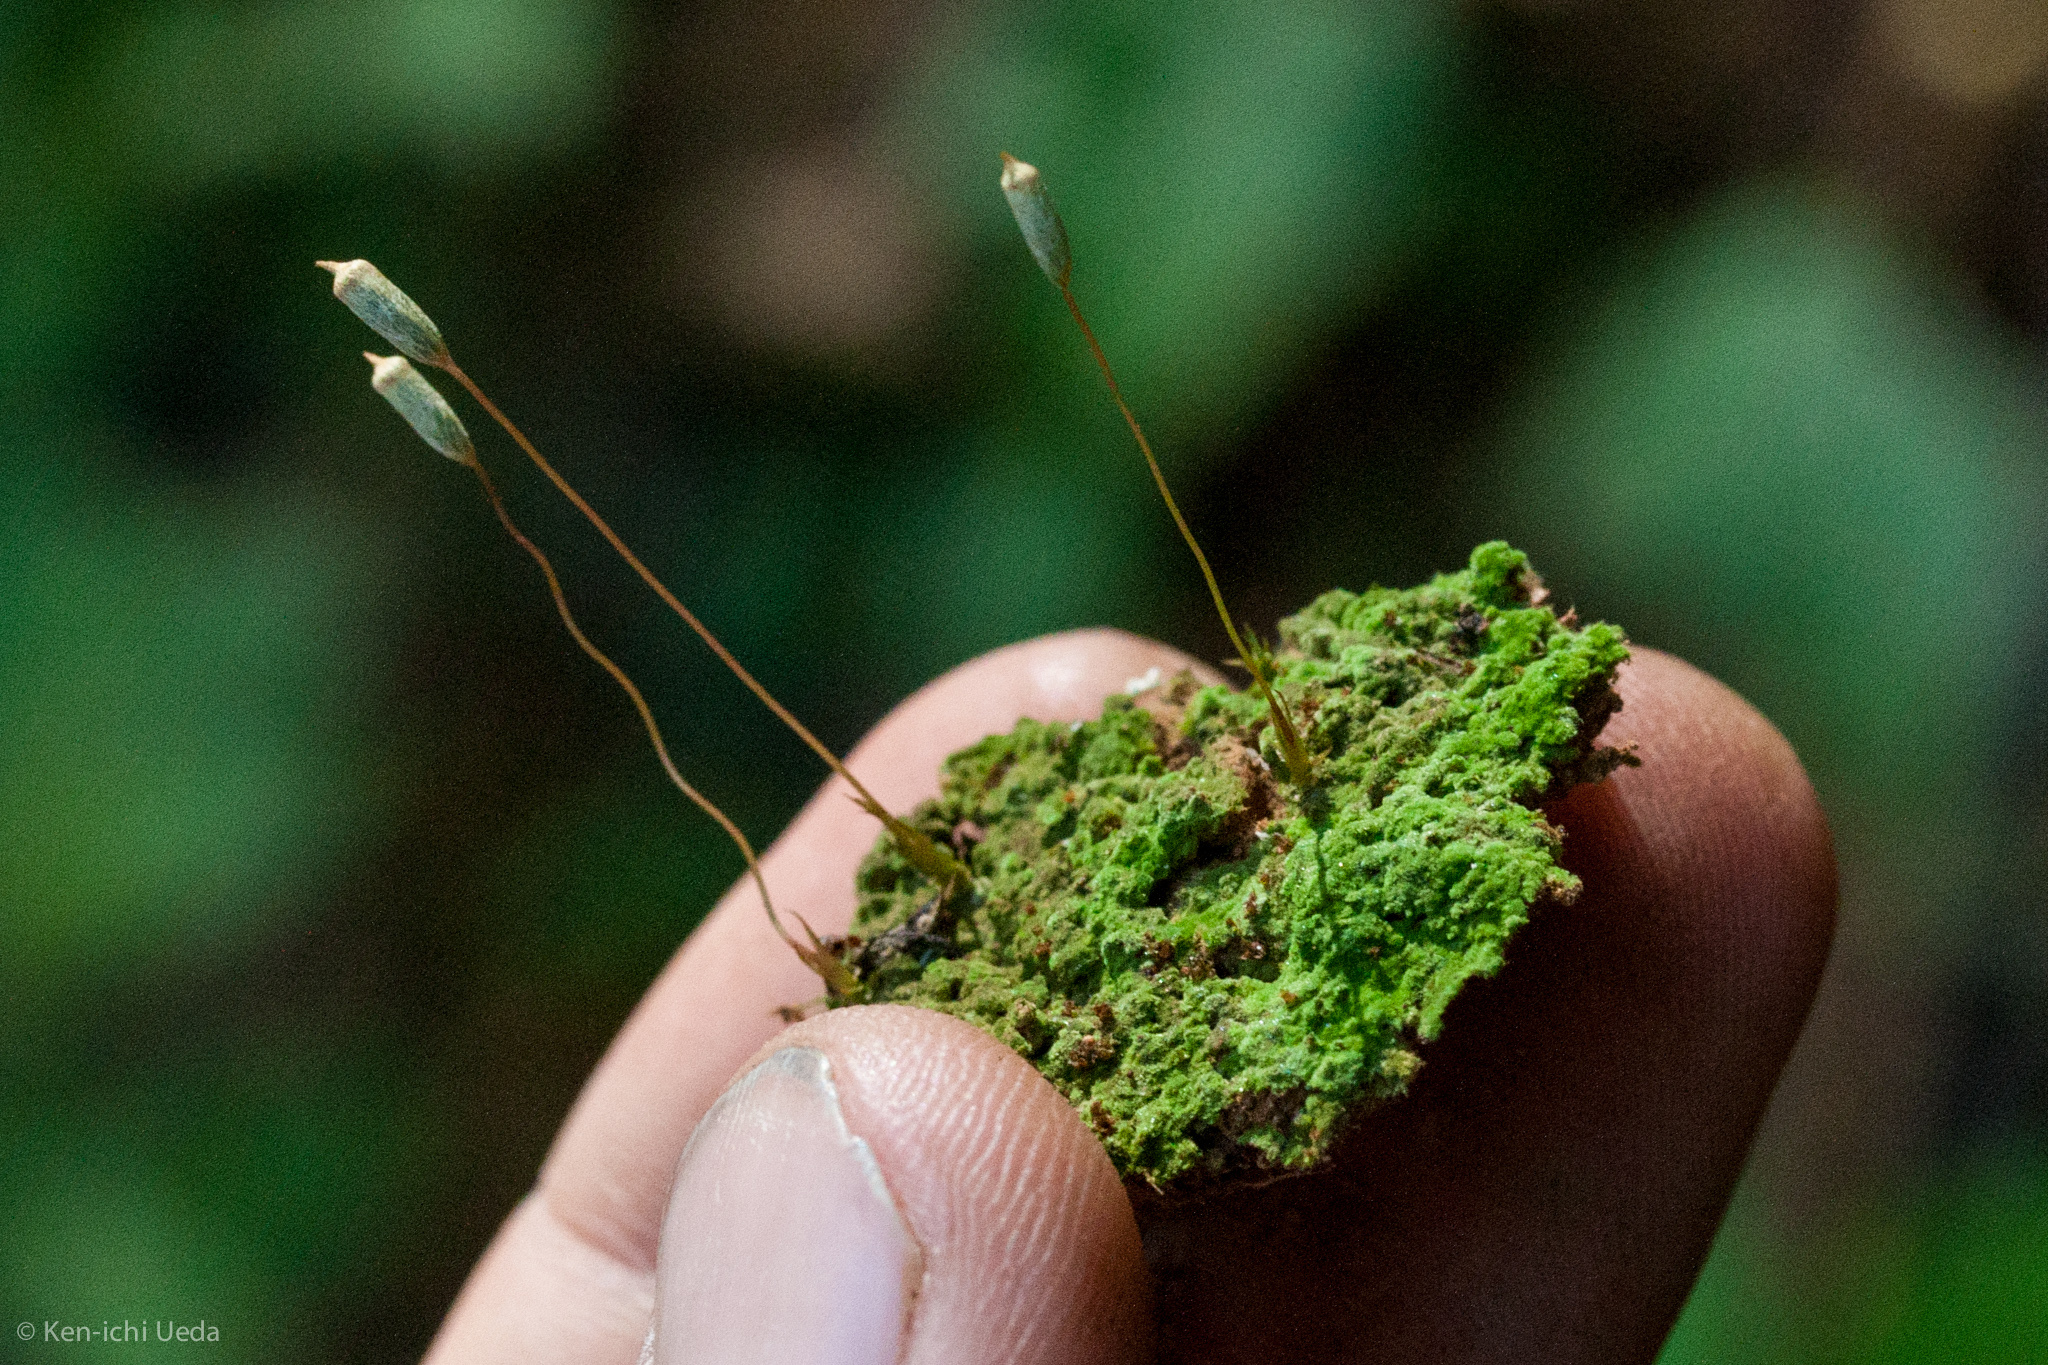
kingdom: Plantae
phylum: Bryophyta
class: Polytrichopsida
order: Polytrichales
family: Polytrichaceae
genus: Pogonatum
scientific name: Pogonatum pensilvanicum
